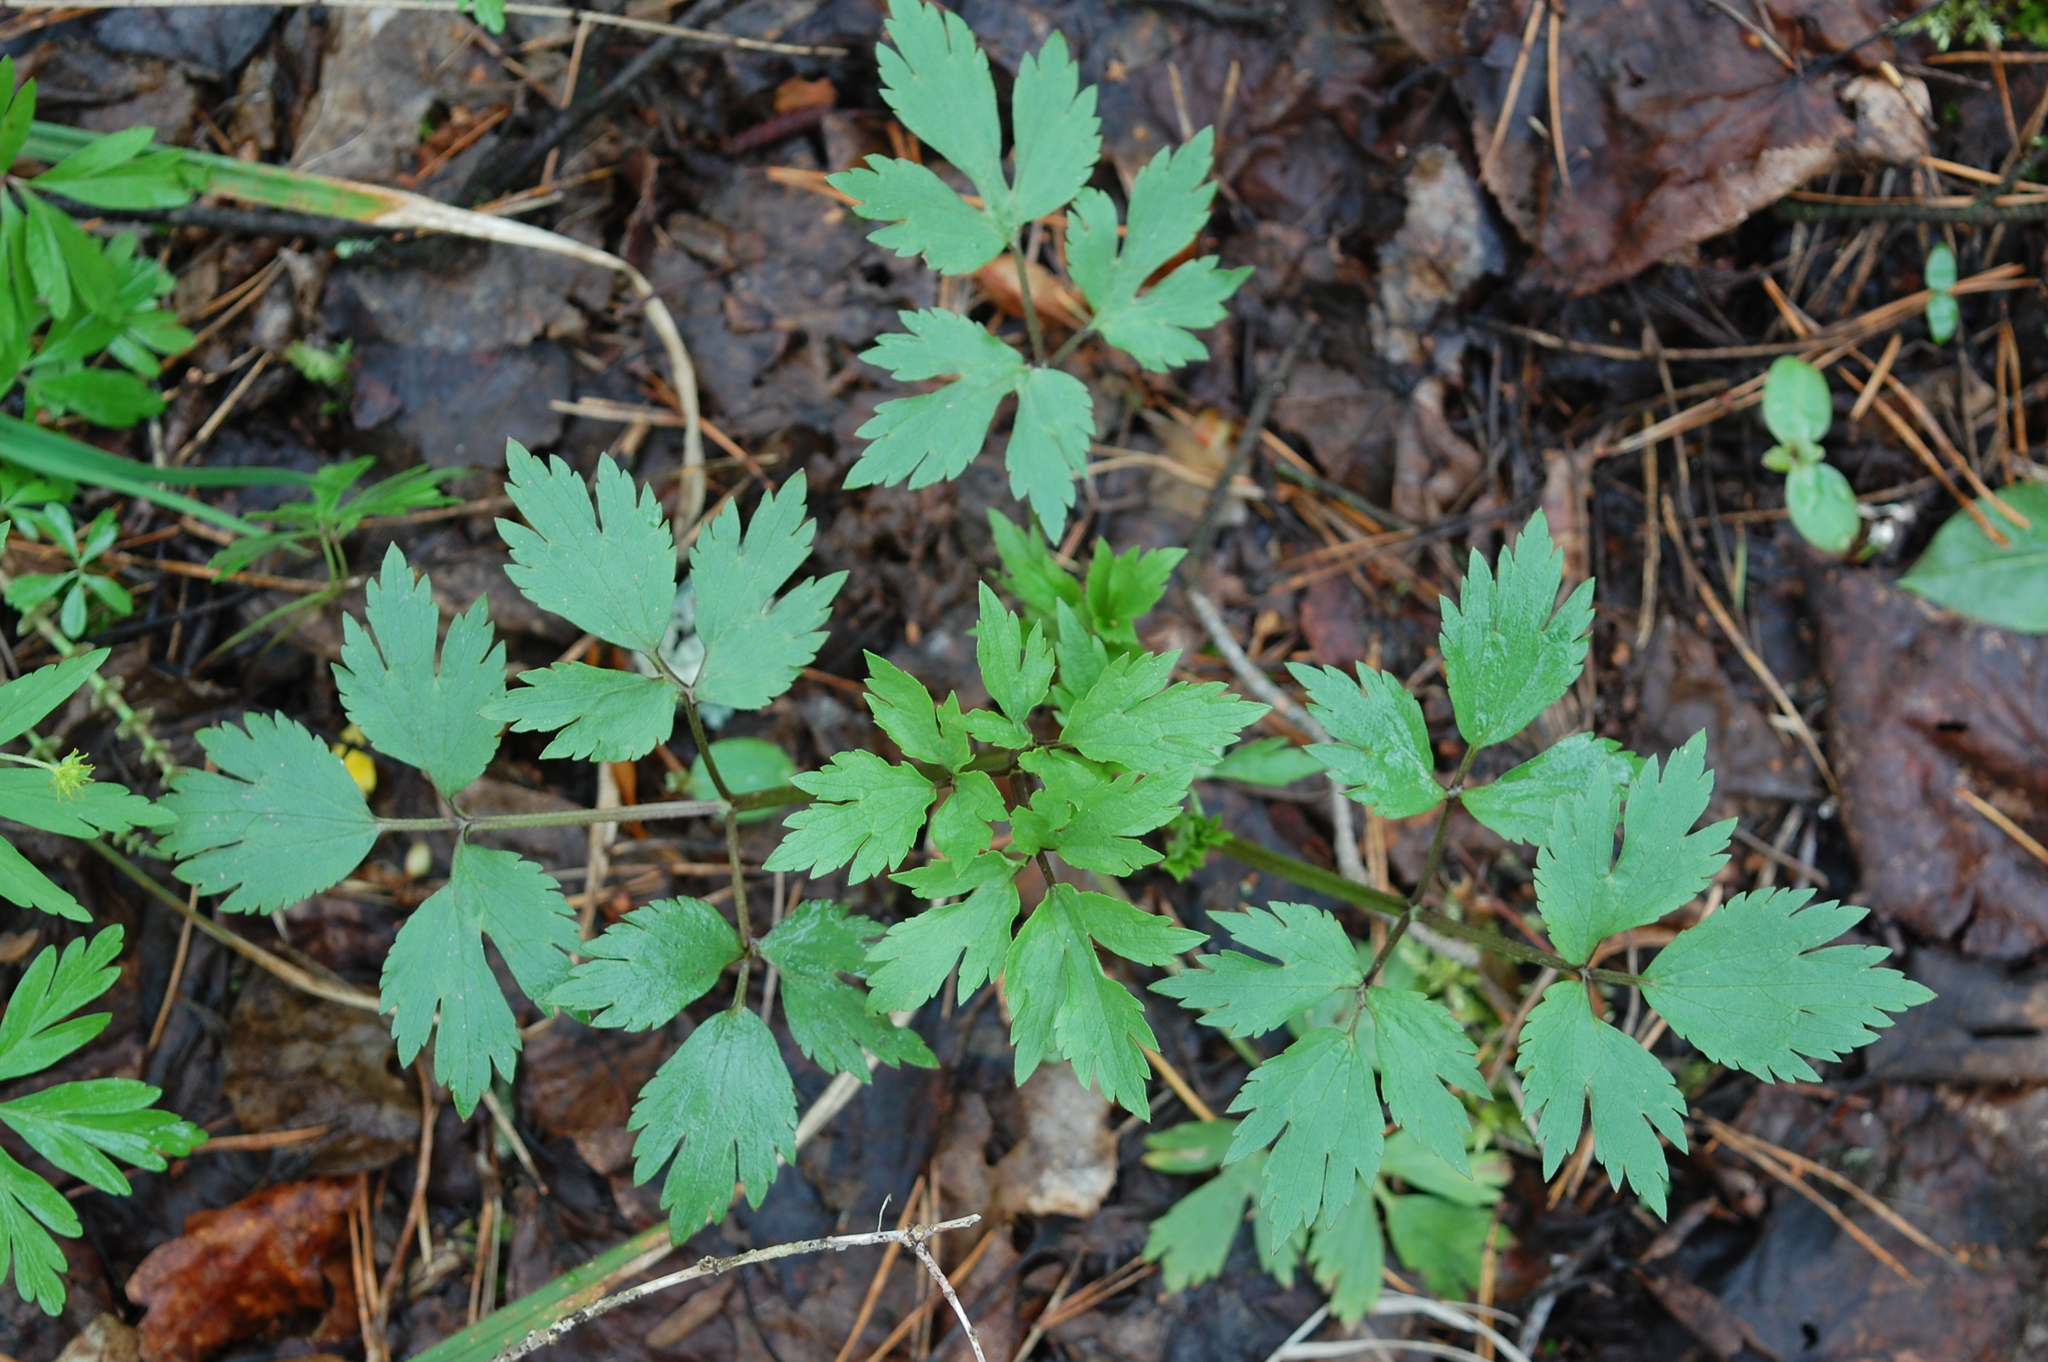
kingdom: Plantae
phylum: Tracheophyta
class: Magnoliopsida
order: Ranunculales
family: Ranunculaceae
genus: Ranunculus
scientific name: Ranunculus repens
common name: Creeping buttercup
